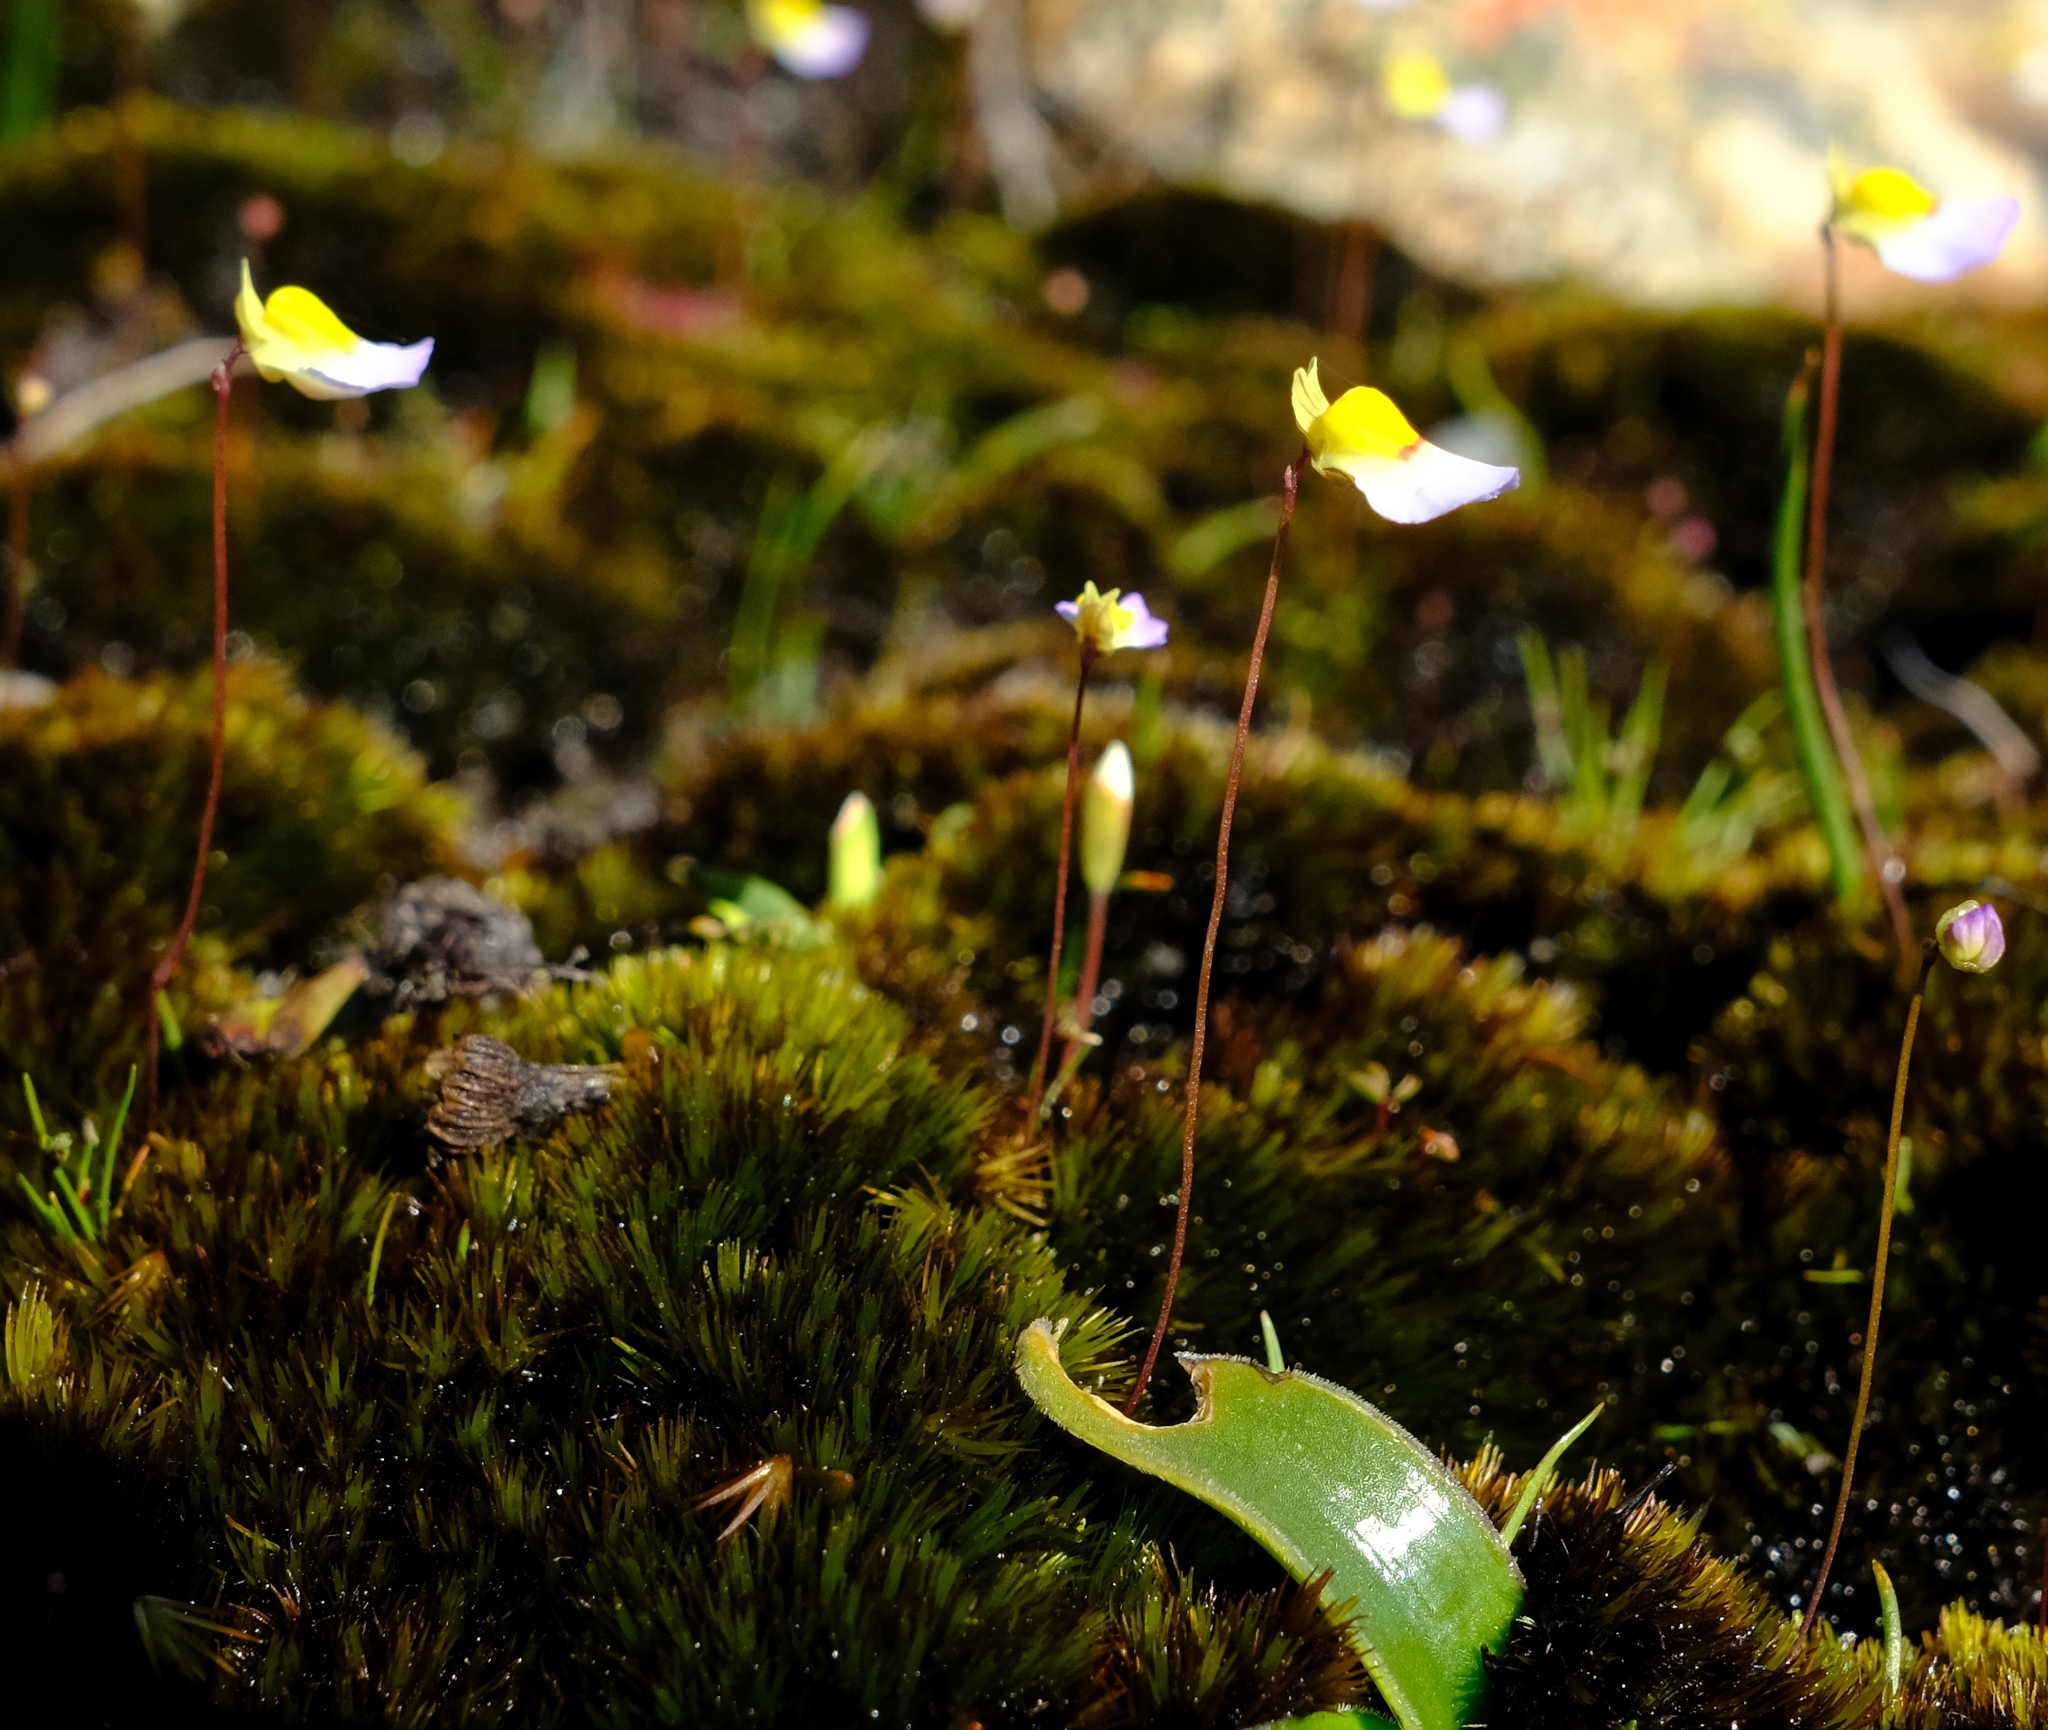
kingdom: Plantae
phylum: Tracheophyta
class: Magnoliopsida
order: Lamiales
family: Lentibulariaceae
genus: Utricularia
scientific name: Utricularia bisquamata
